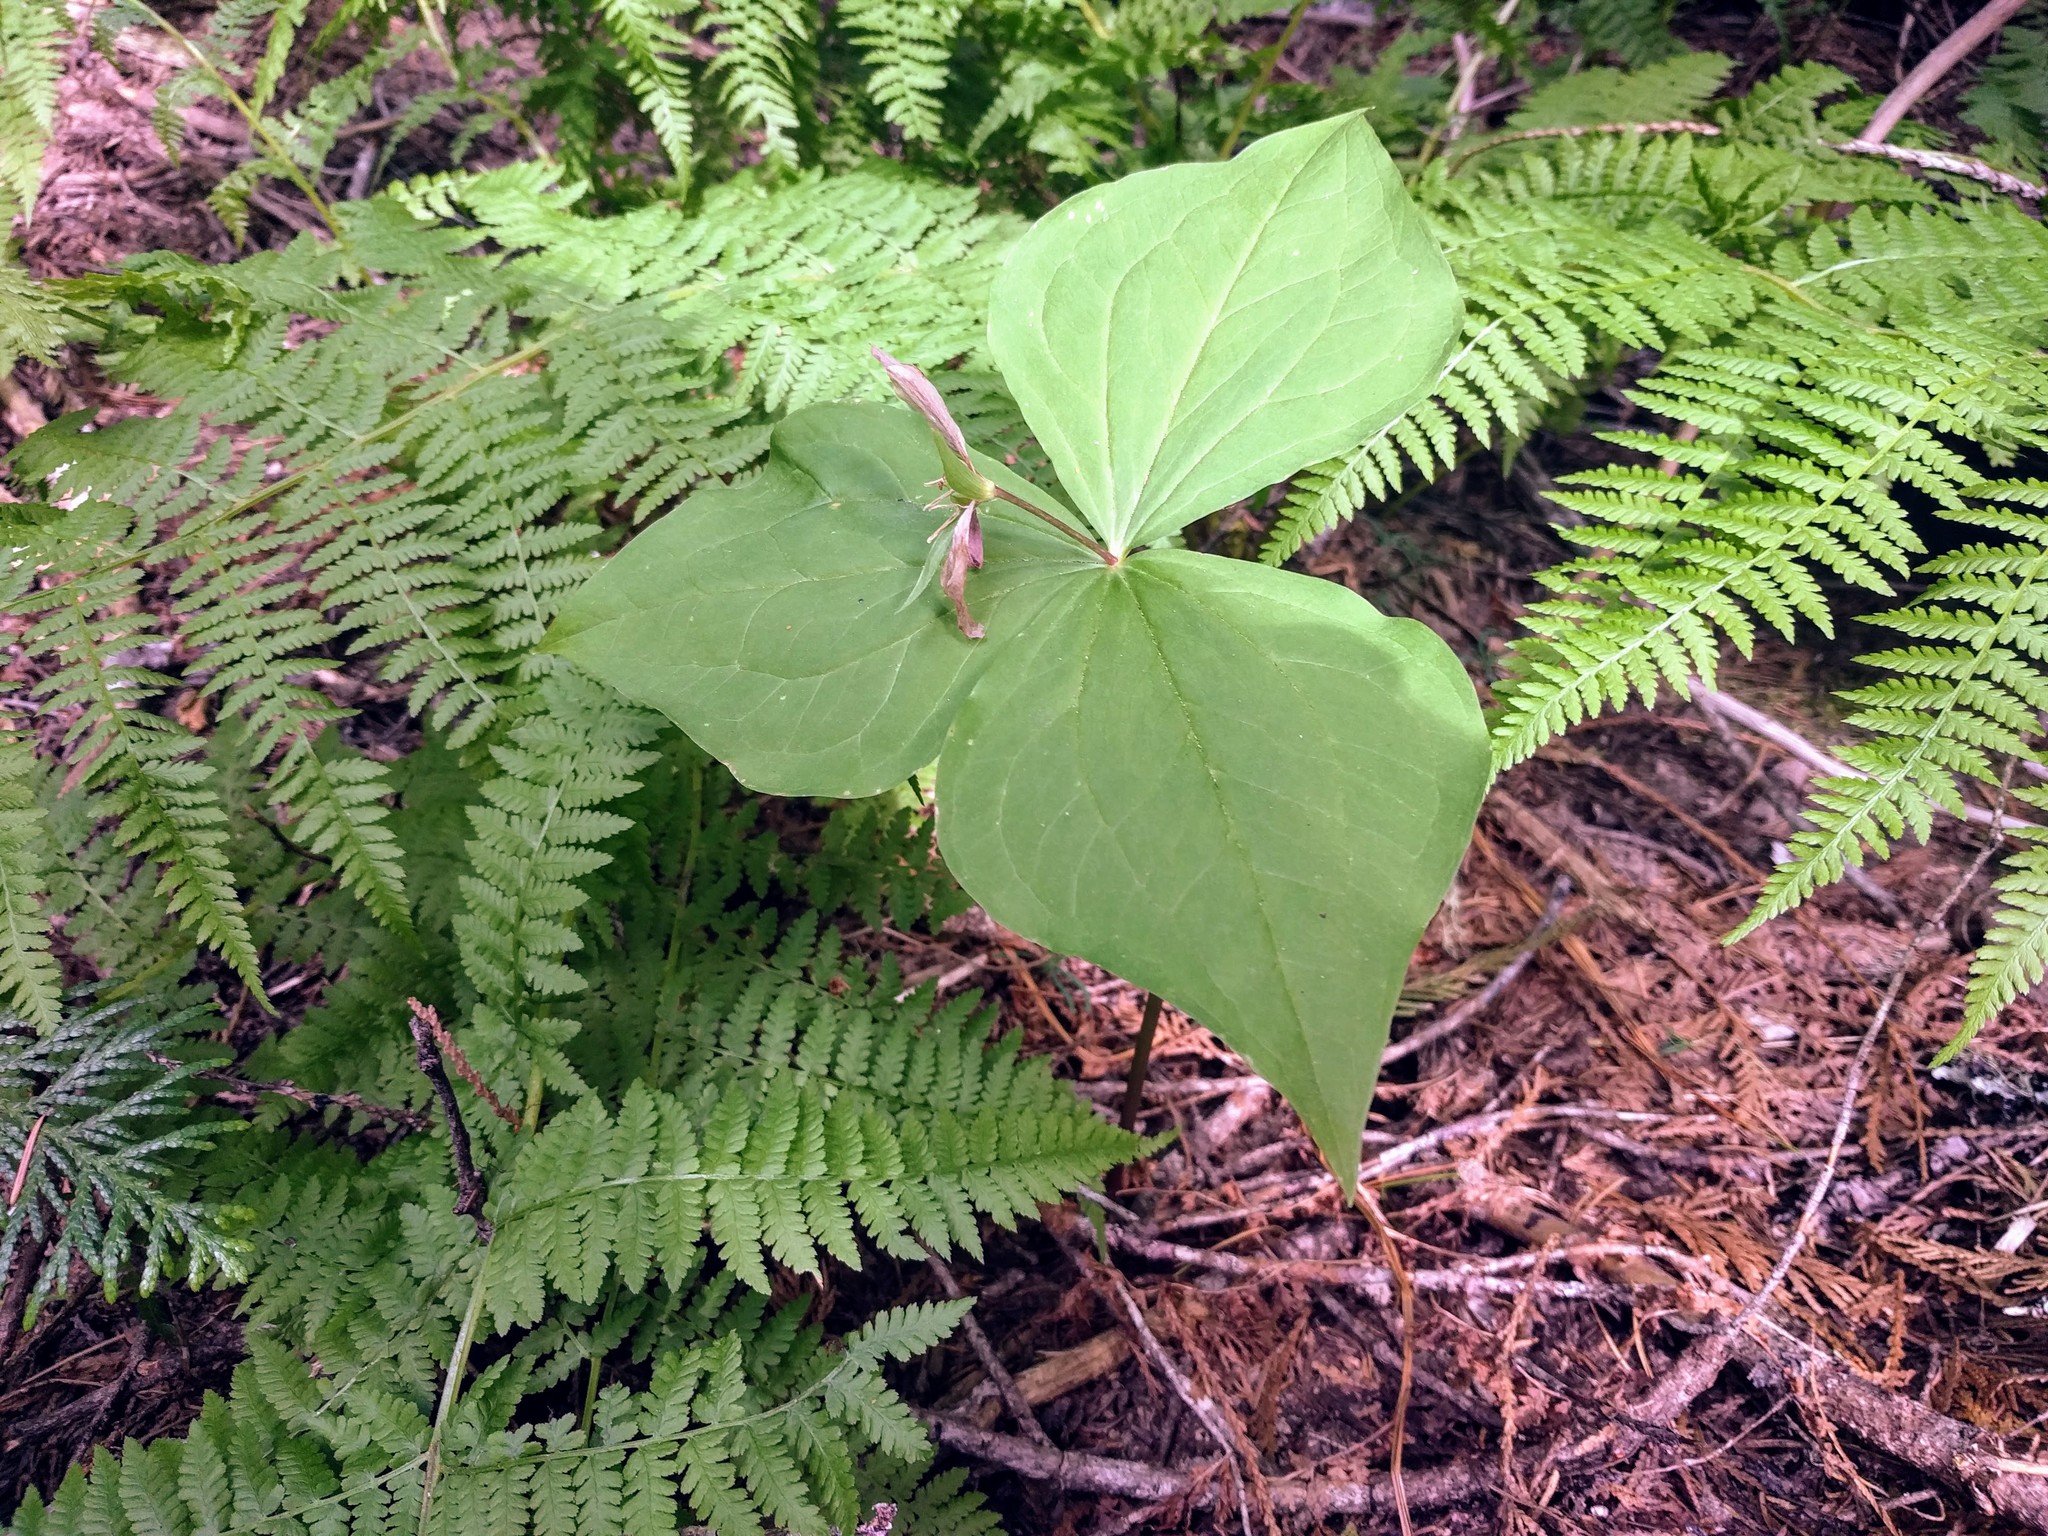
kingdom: Plantae
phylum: Tracheophyta
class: Liliopsida
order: Liliales
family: Melanthiaceae
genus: Trillium
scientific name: Trillium ovatum
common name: Pacific trillium
